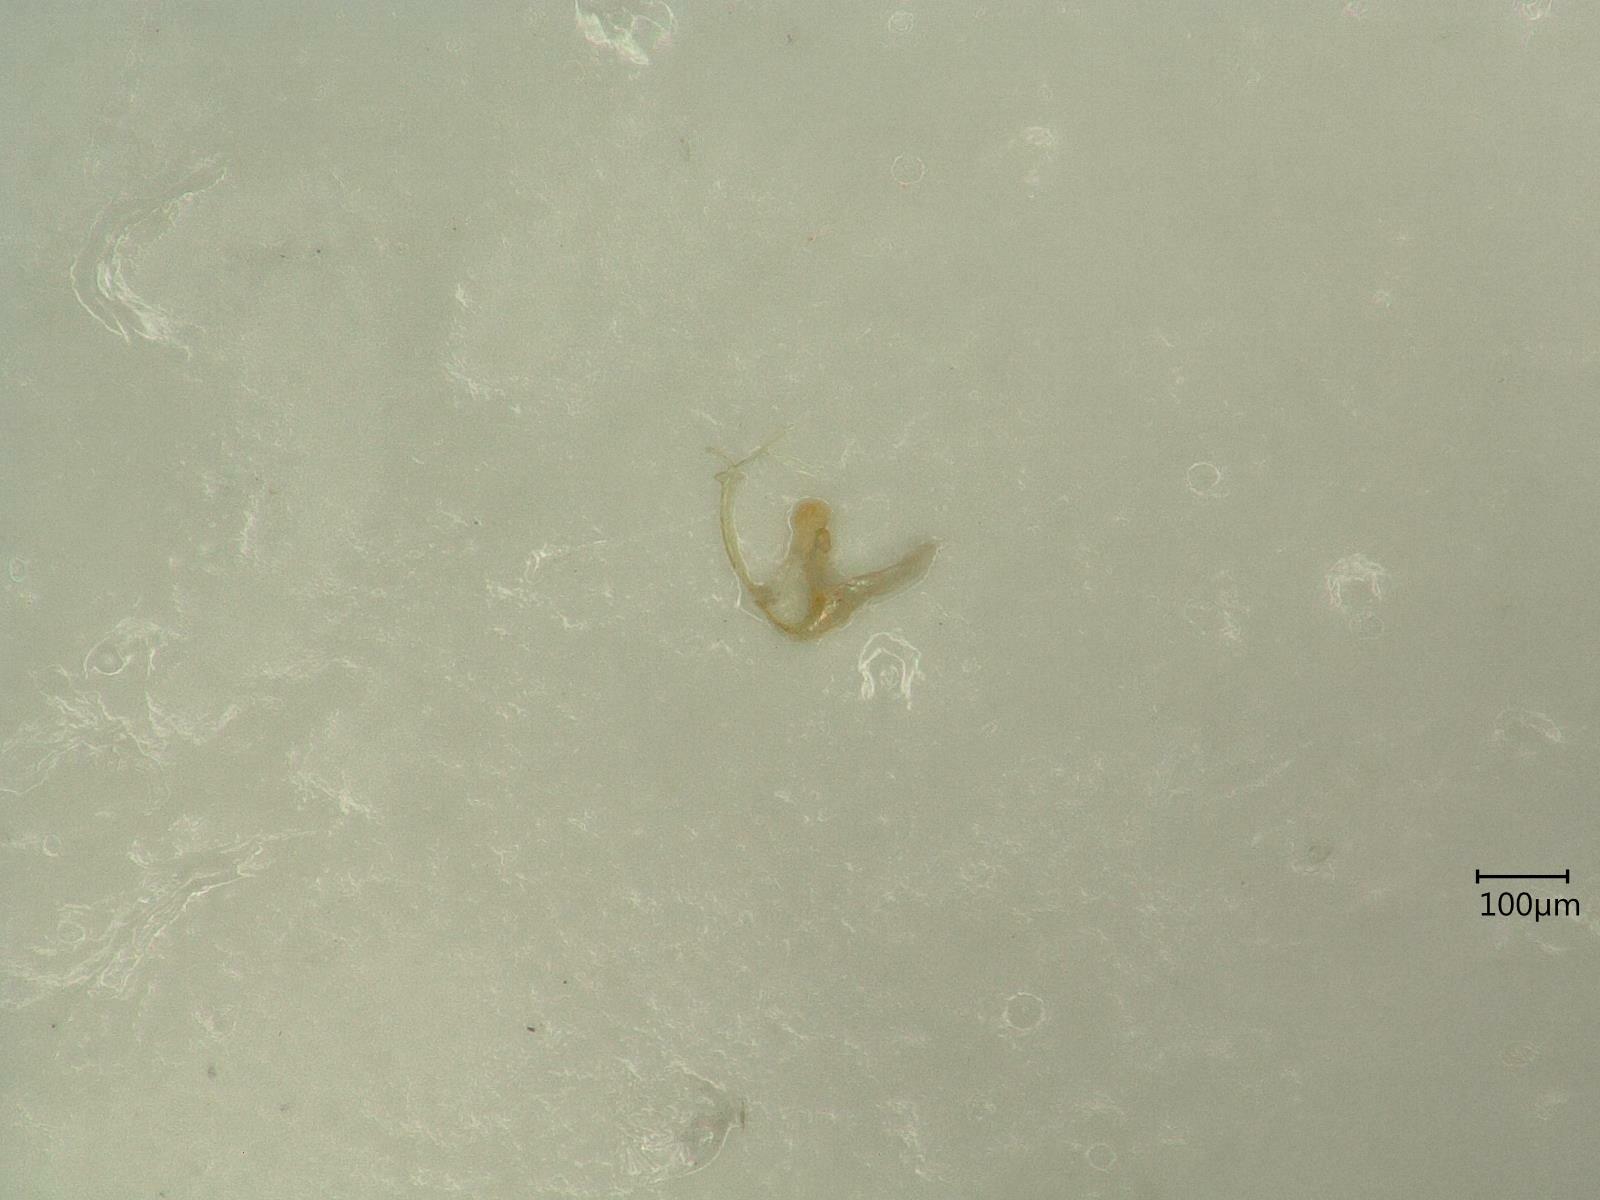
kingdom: Animalia
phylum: Arthropoda
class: Insecta
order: Hemiptera
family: Cicadellidae
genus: Eupteryx
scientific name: Eupteryx calcarata
